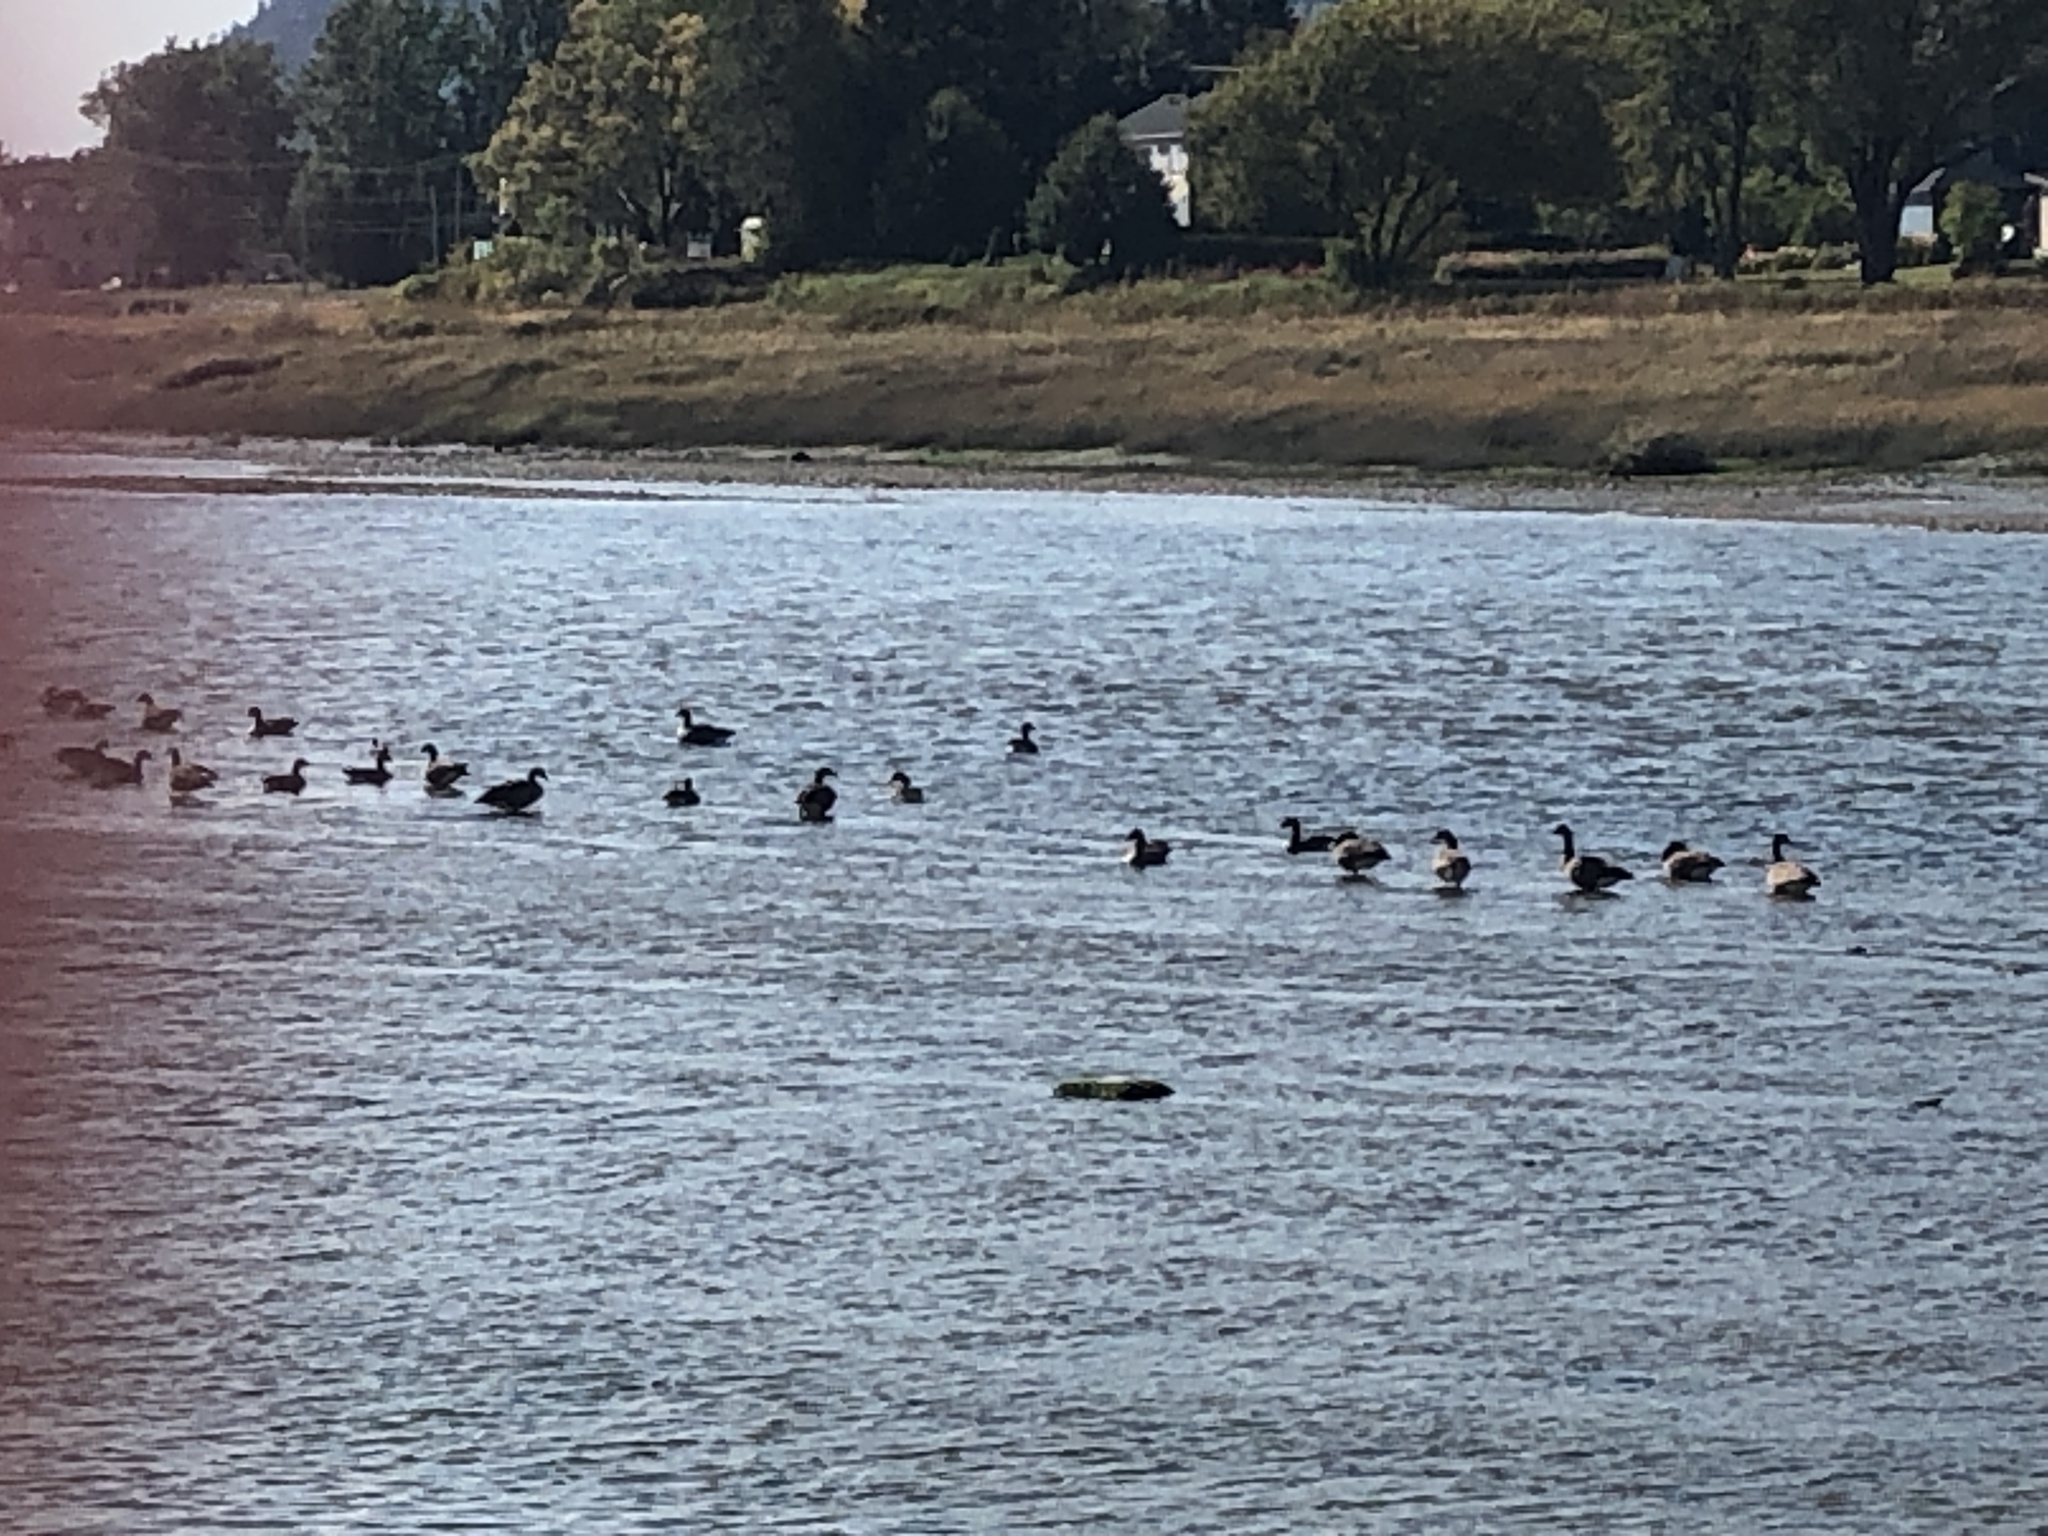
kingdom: Animalia
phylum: Chordata
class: Aves
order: Anseriformes
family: Anatidae
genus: Branta
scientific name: Branta canadensis
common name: Canada goose
